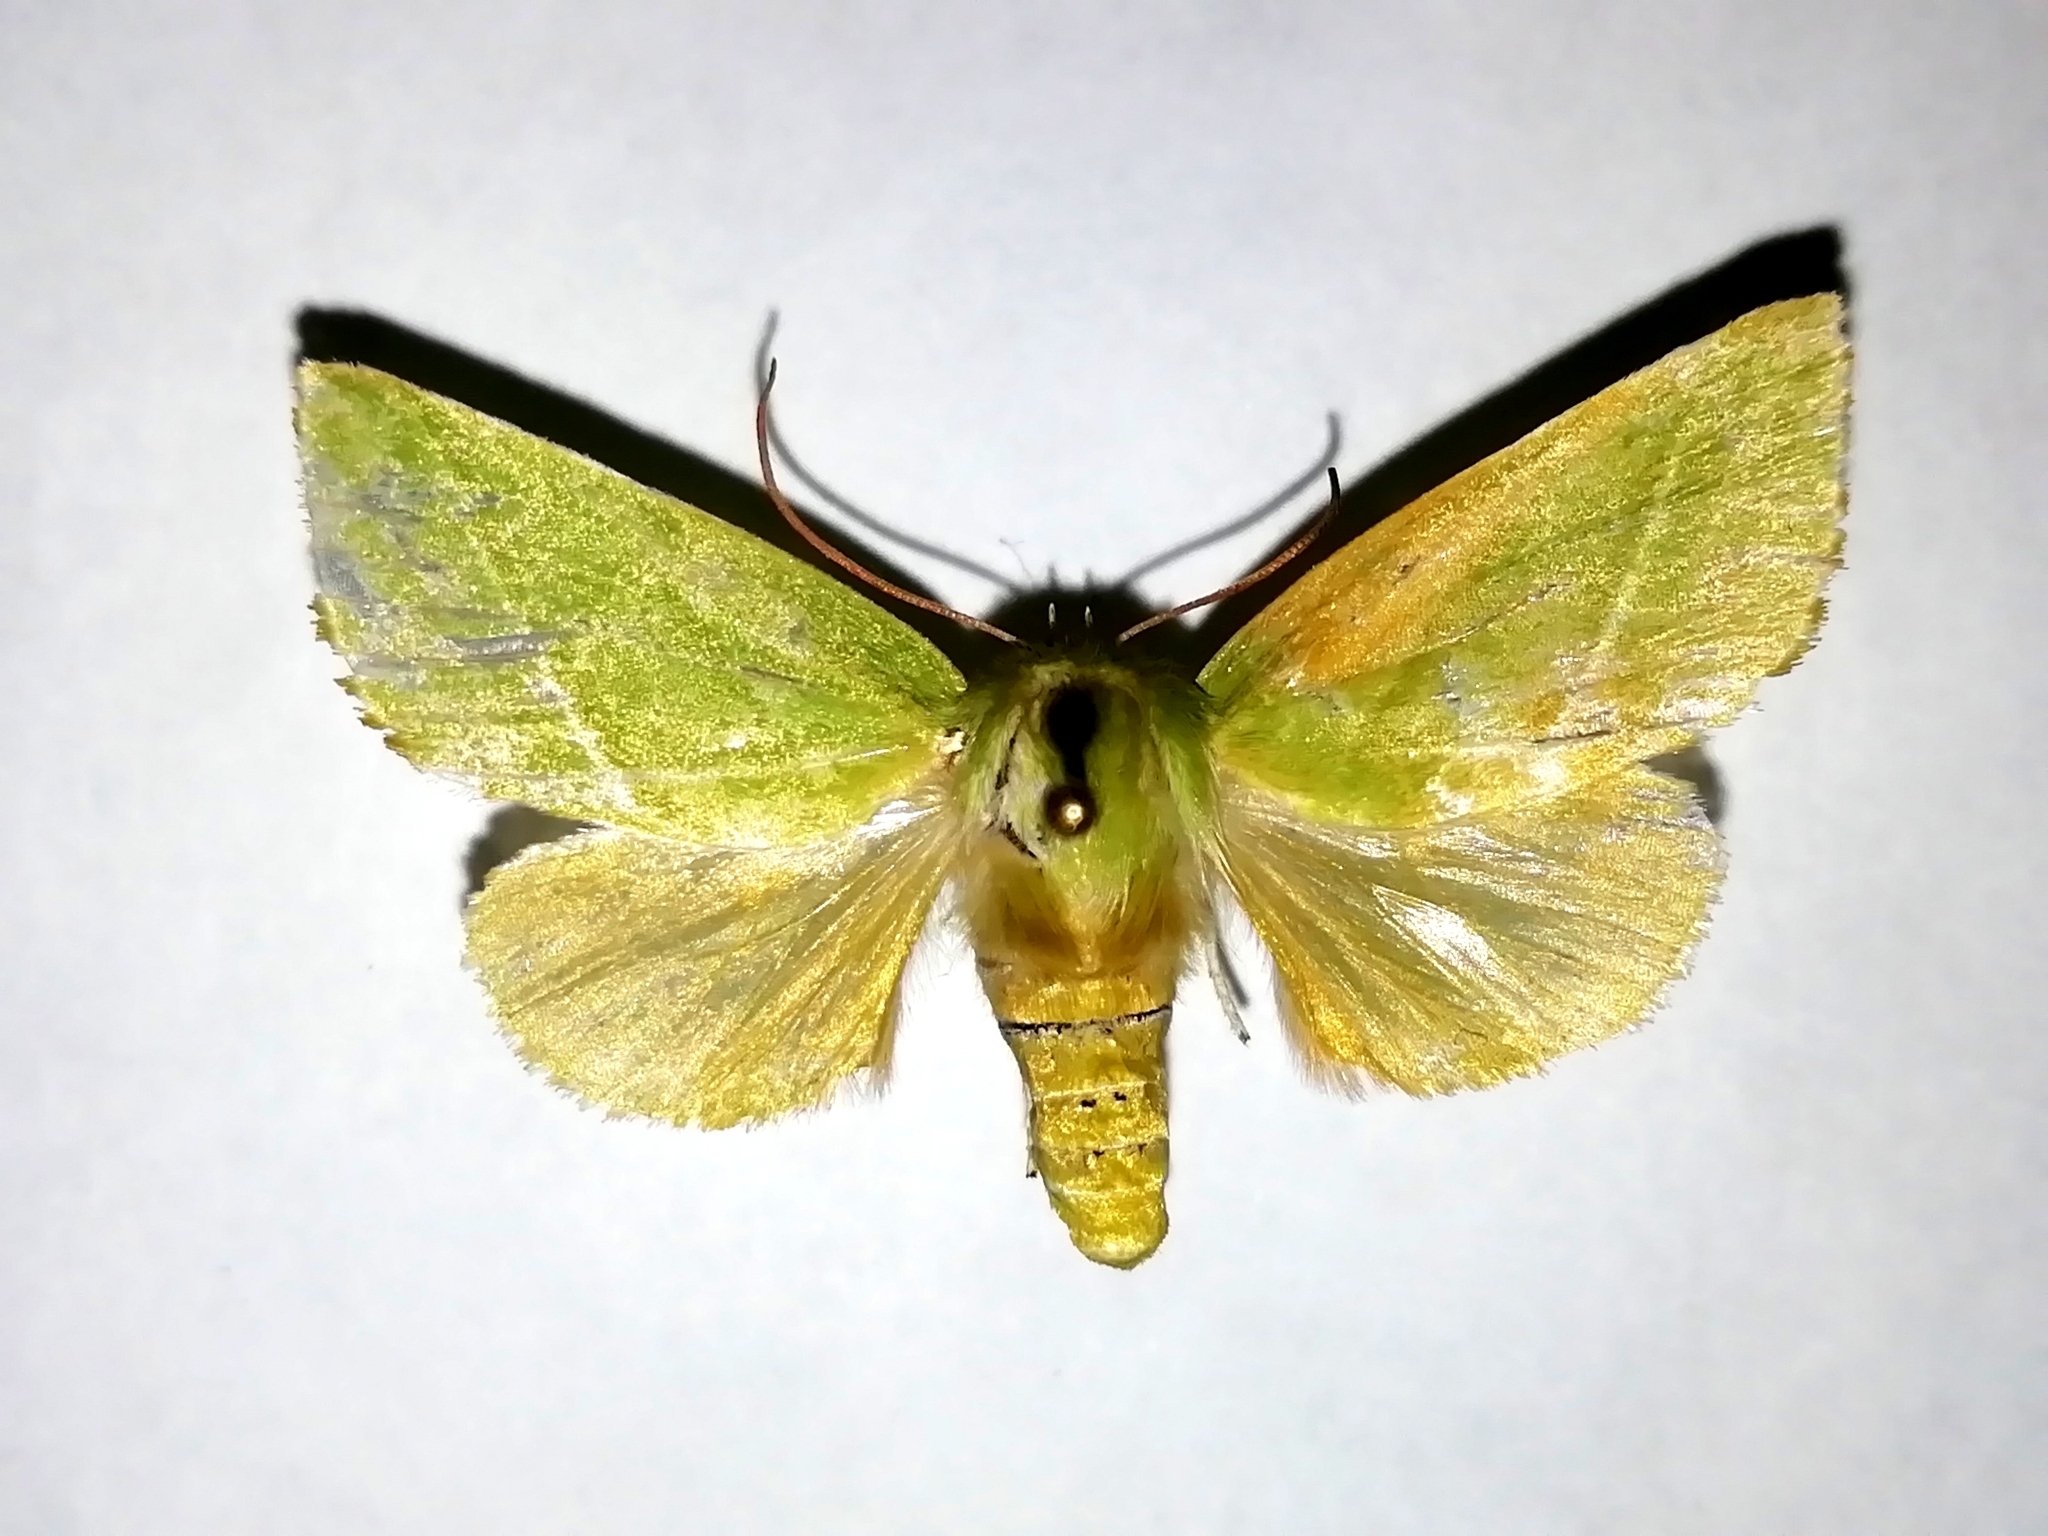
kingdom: Animalia
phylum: Arthropoda
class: Insecta
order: Lepidoptera
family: Nolidae
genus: Pseudoips
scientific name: Pseudoips prasinana
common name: Green silver-lines
